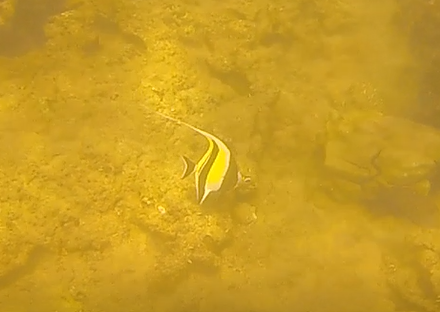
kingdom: Animalia
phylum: Chordata
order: Perciformes
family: Zanclidae
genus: Zanclus
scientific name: Zanclus cornutus
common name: Moorish idol
